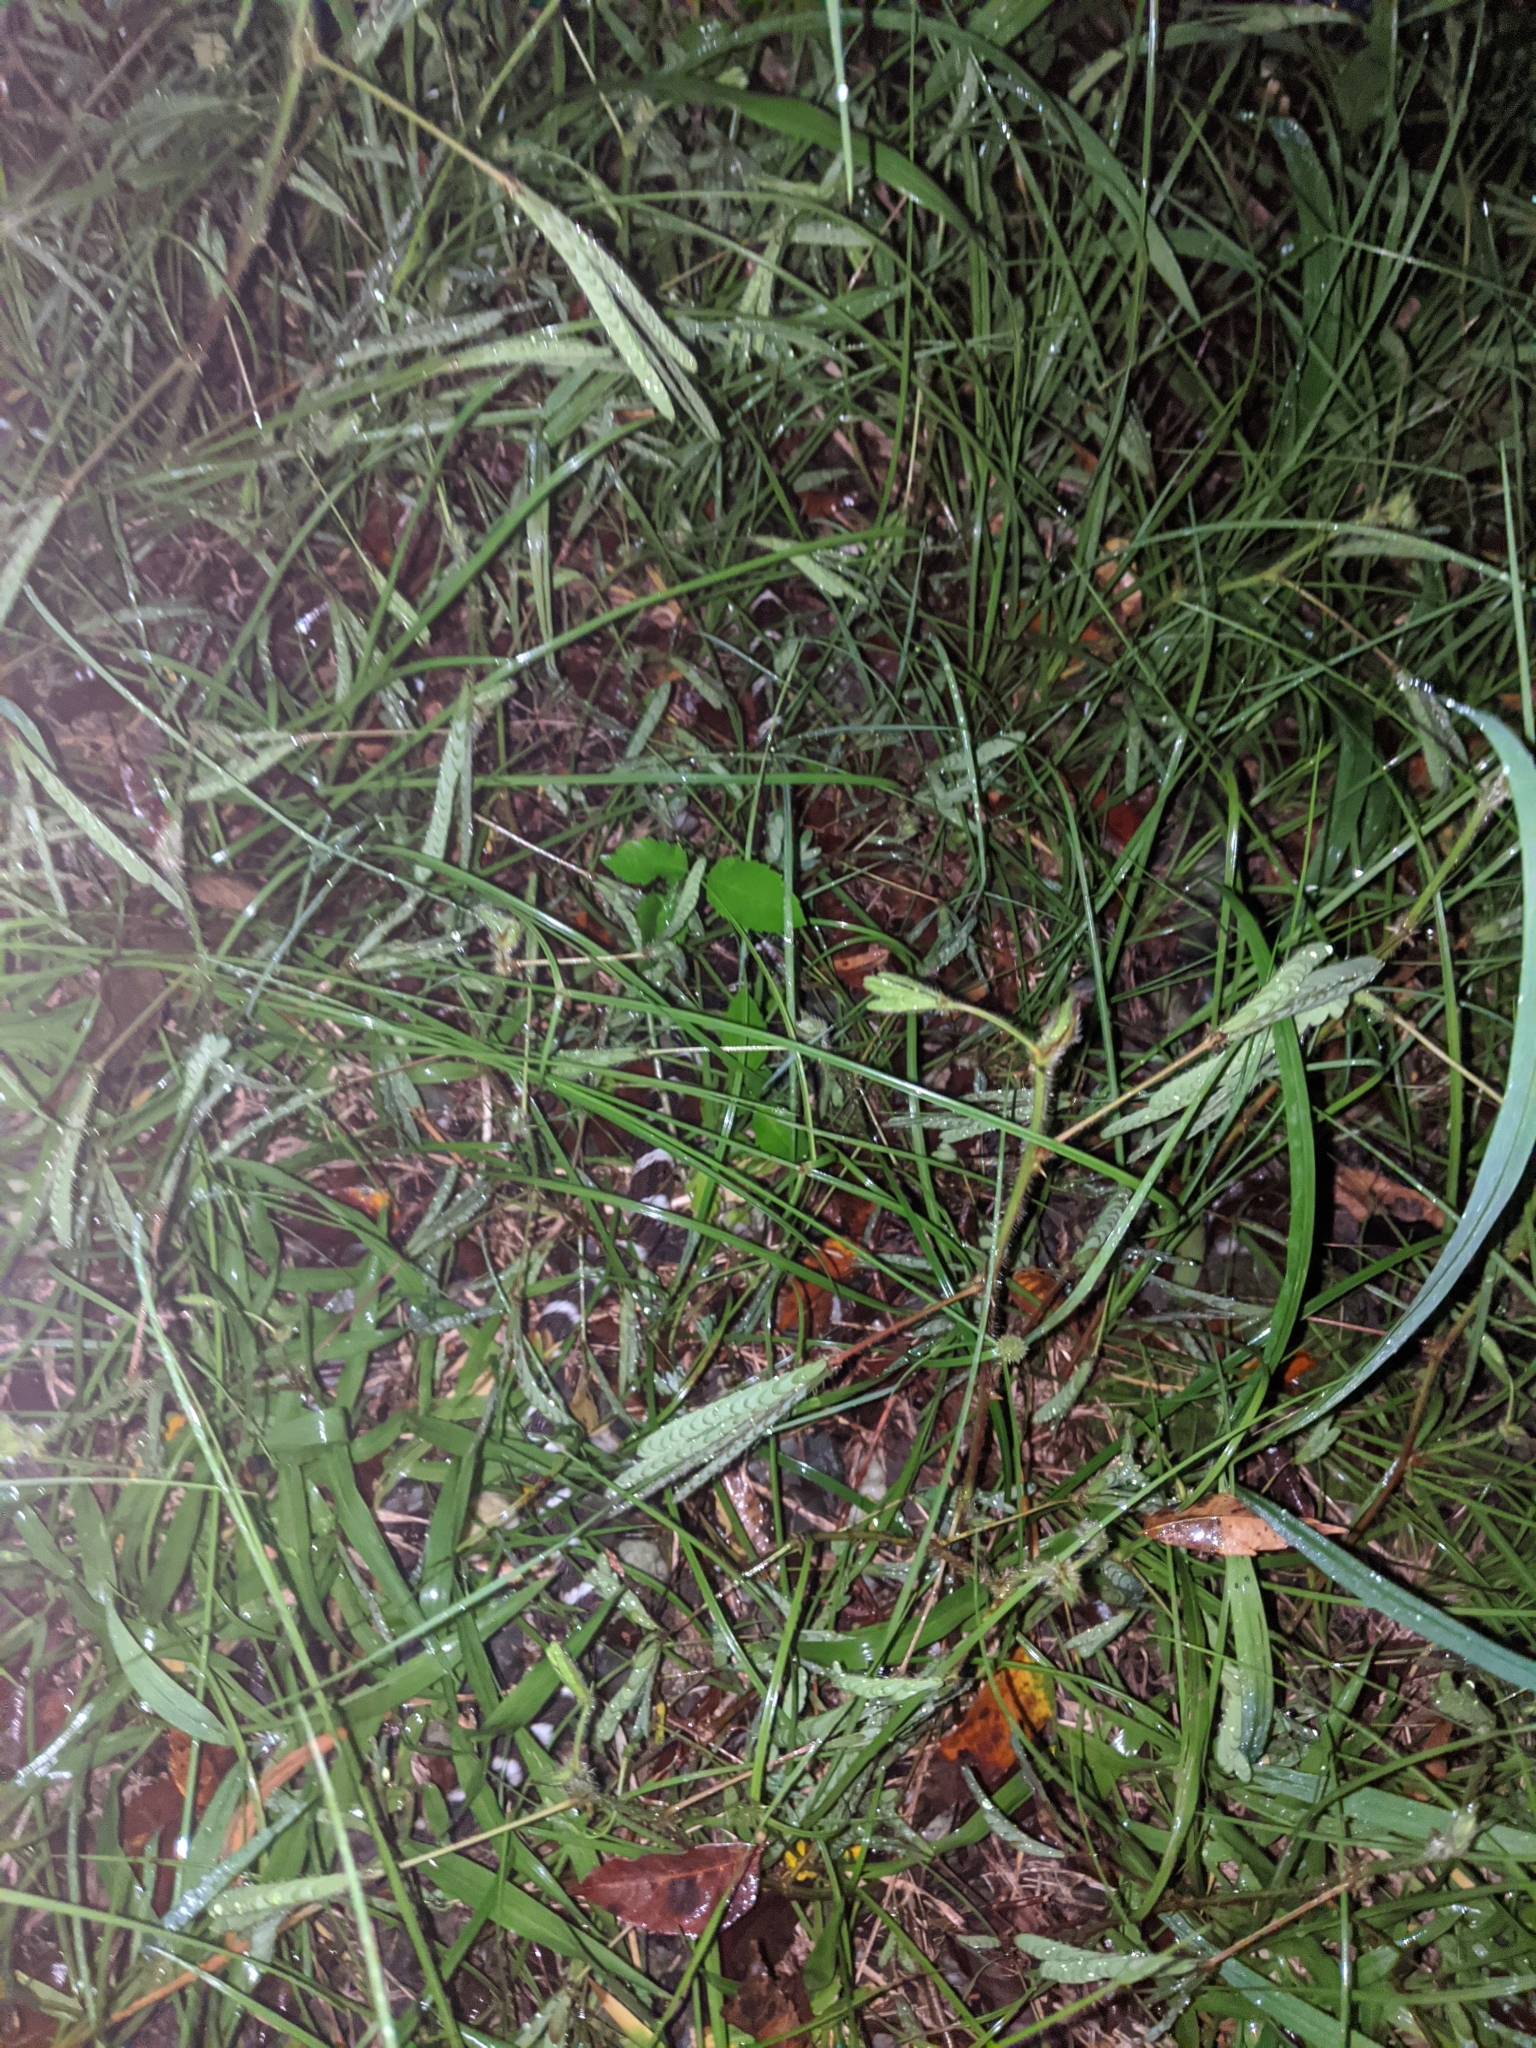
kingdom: Animalia
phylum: Chordata
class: Squamata
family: Elapidae
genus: Bungarus
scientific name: Bungarus multicinctus
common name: Many-banded krait
